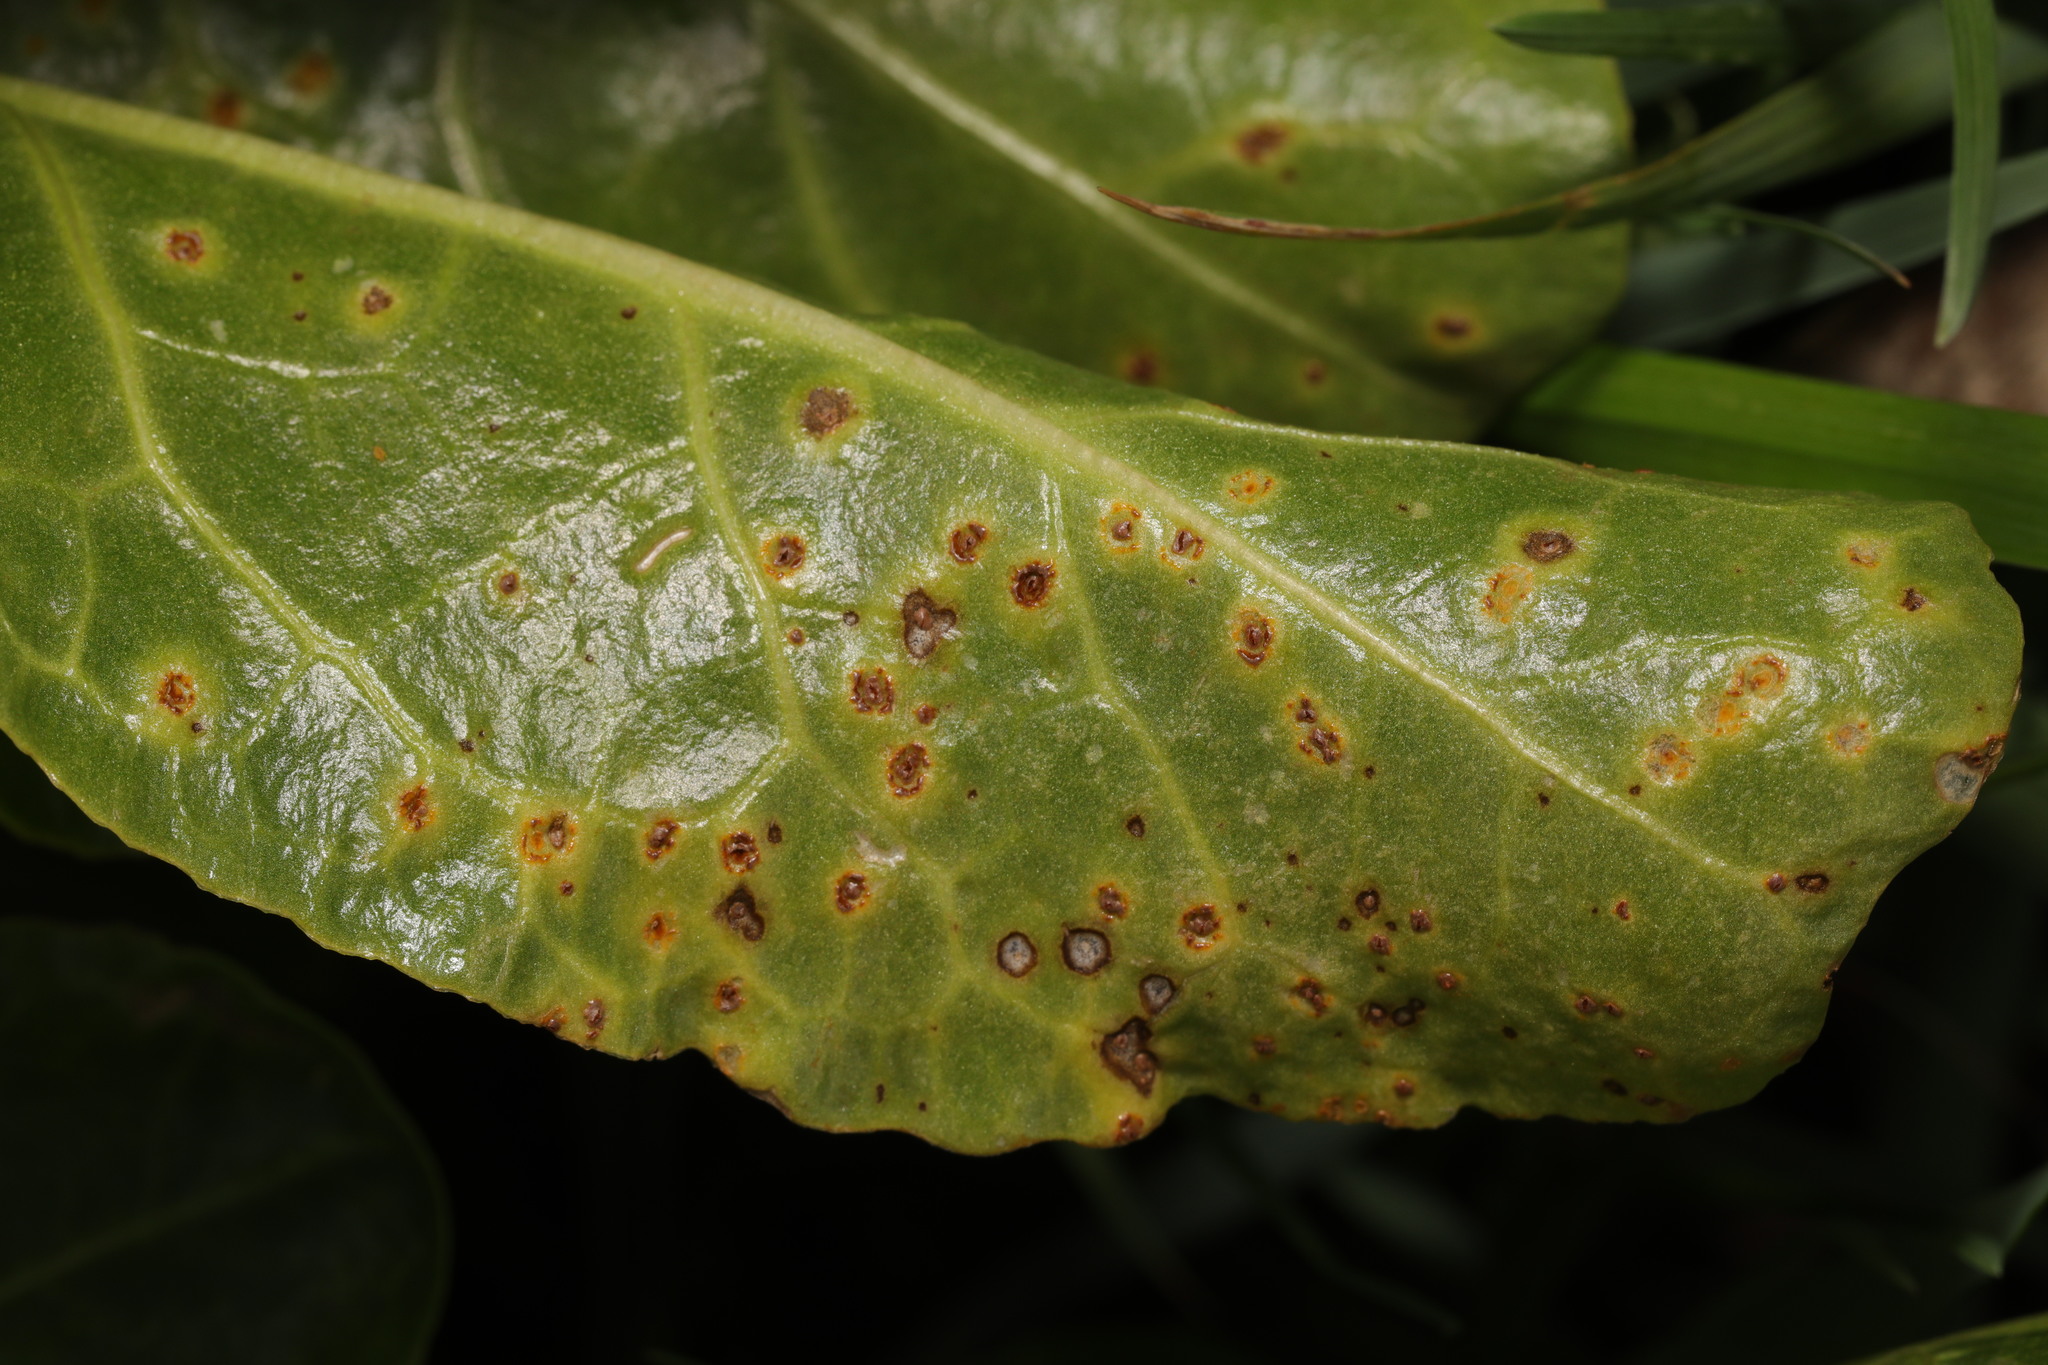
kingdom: Fungi
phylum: Basidiomycota
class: Pucciniomycetes
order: Pucciniales
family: Pucciniaceae
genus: Uromyces
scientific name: Uromyces betae
